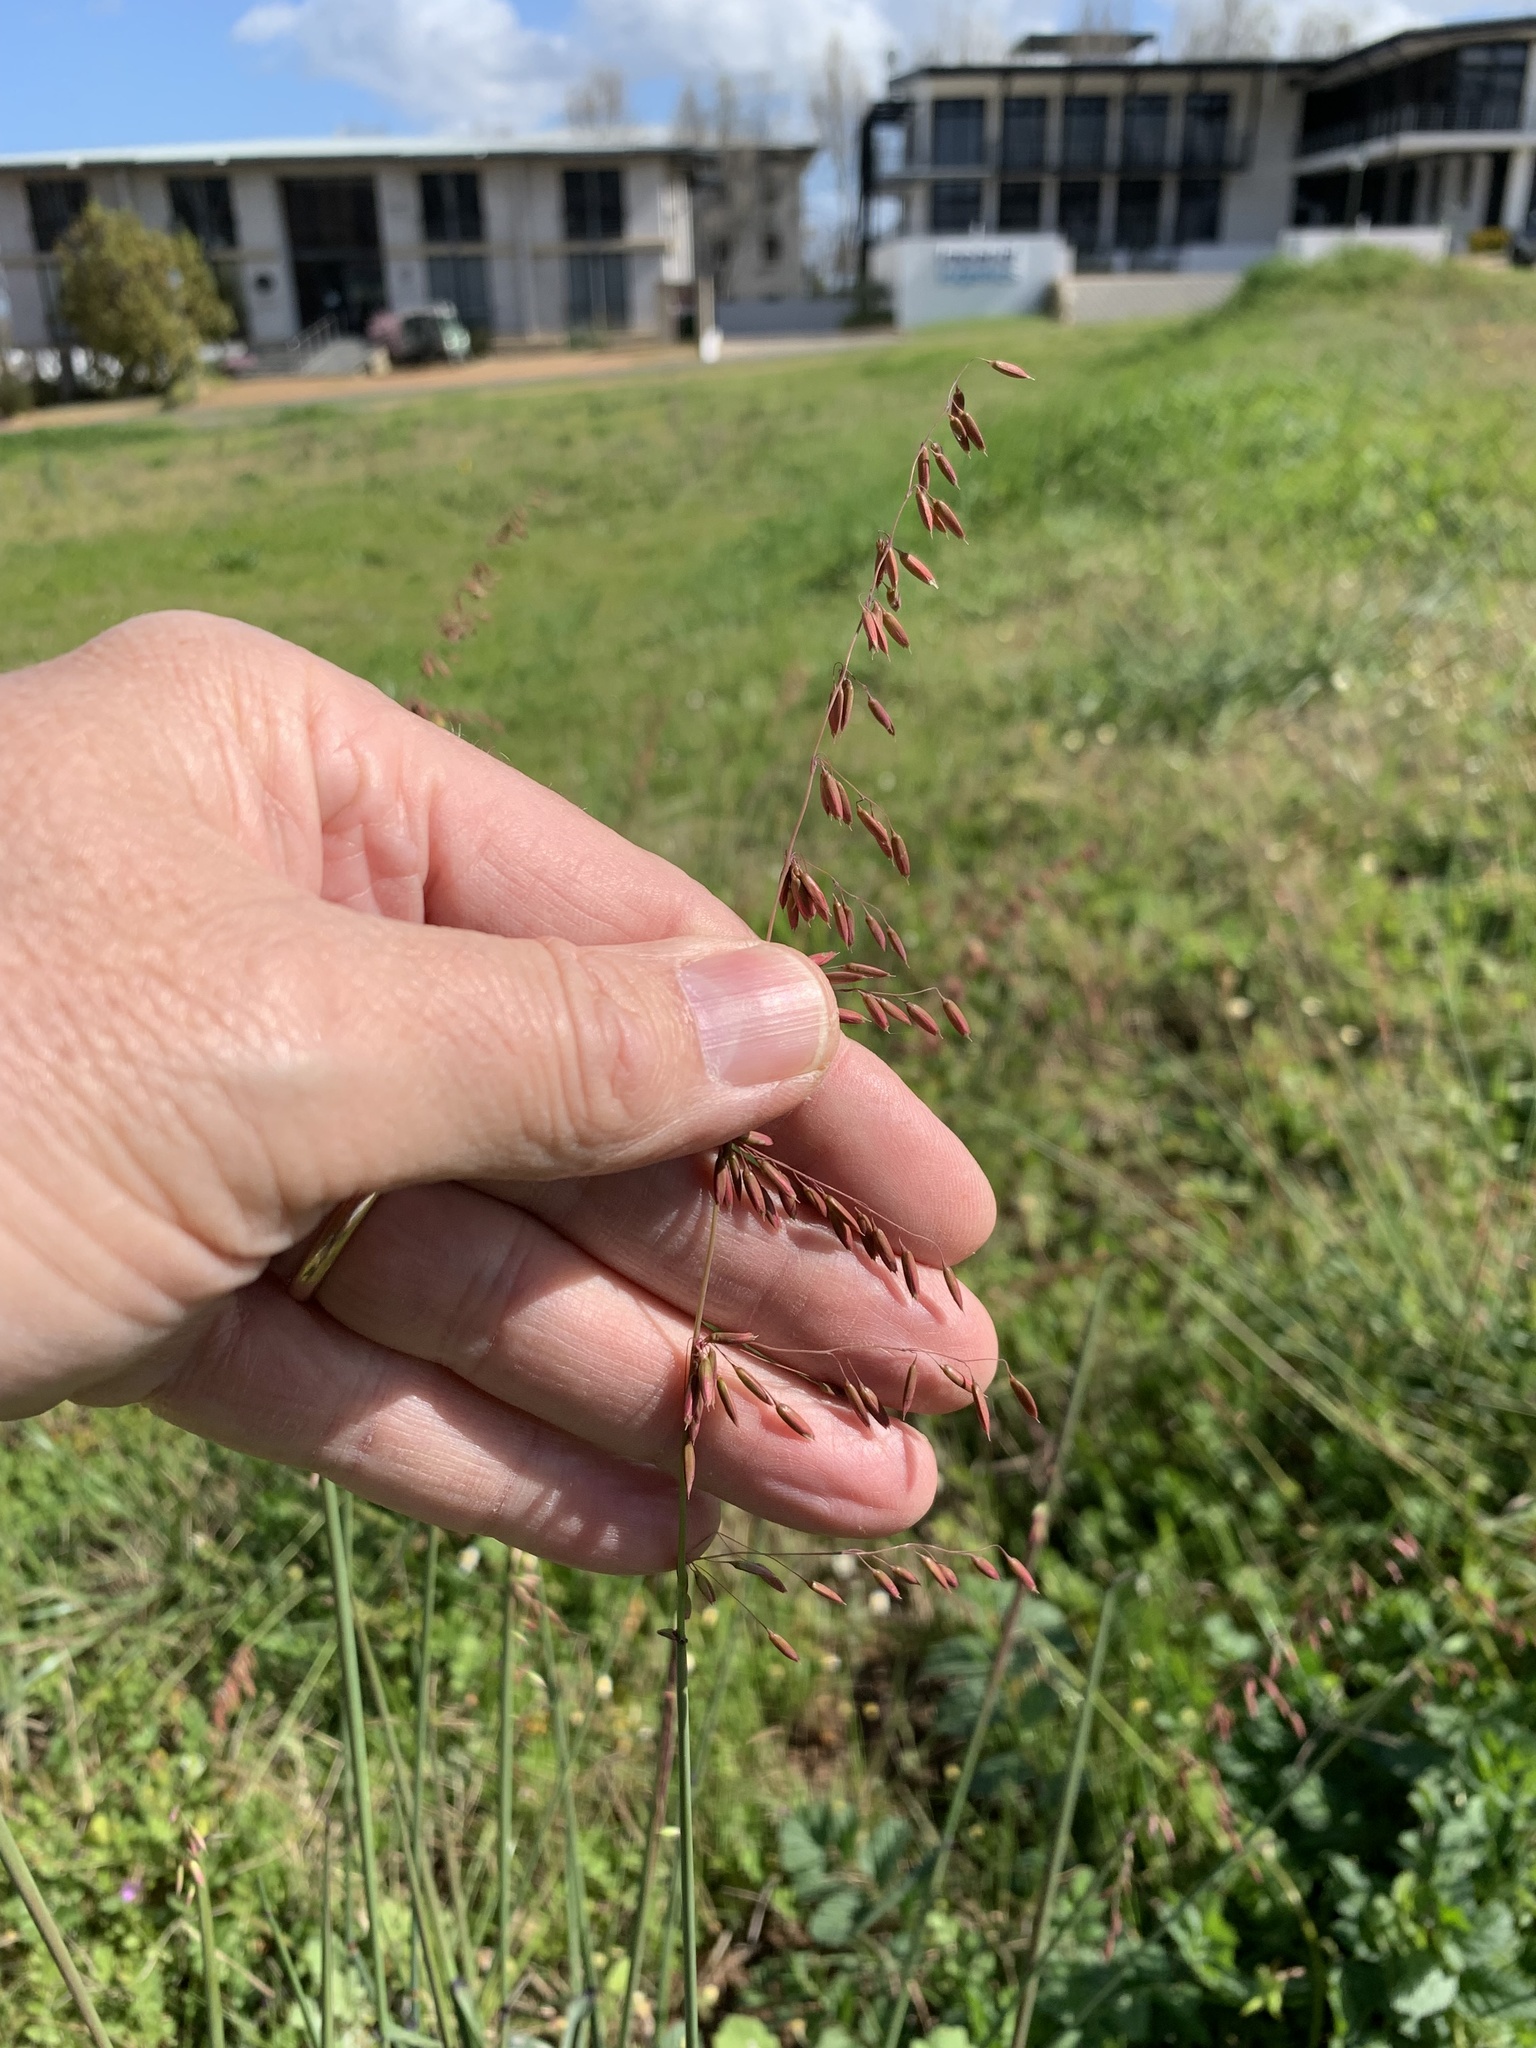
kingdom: Plantae
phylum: Tracheophyta
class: Liliopsida
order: Poales
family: Poaceae
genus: Ehrharta
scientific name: Ehrharta calycina
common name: Perennial veldtgrass
